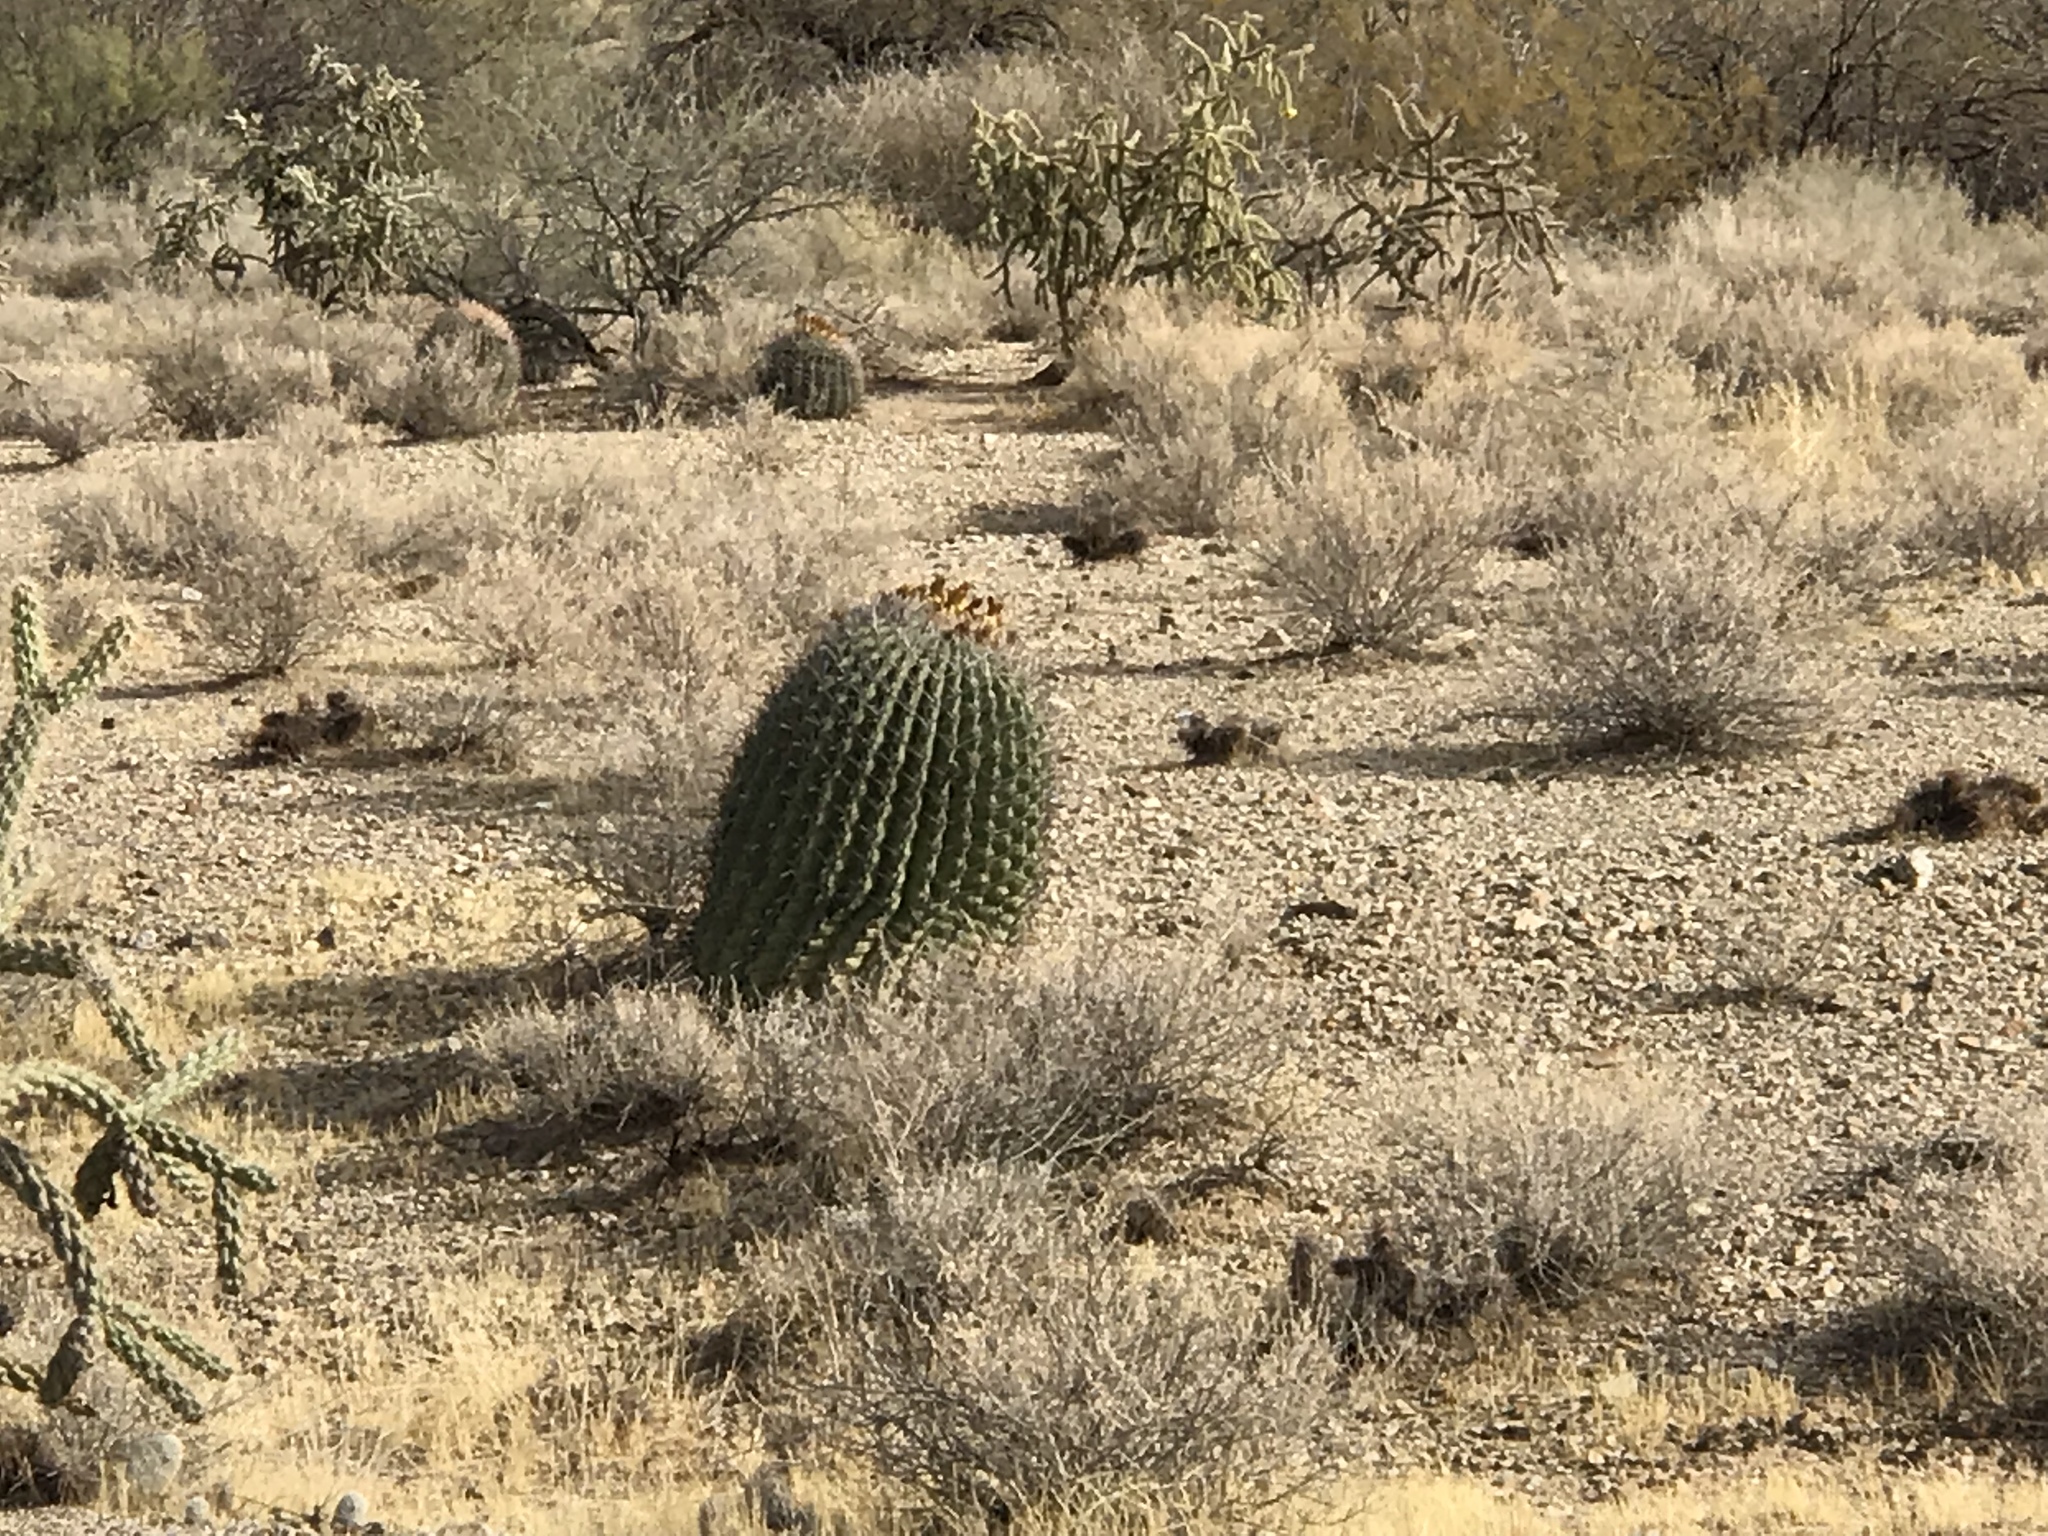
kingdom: Plantae
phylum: Tracheophyta
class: Magnoliopsida
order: Caryophyllales
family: Cactaceae
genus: Ferocactus
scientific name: Ferocactus wislizeni
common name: Candy barrel cactus
